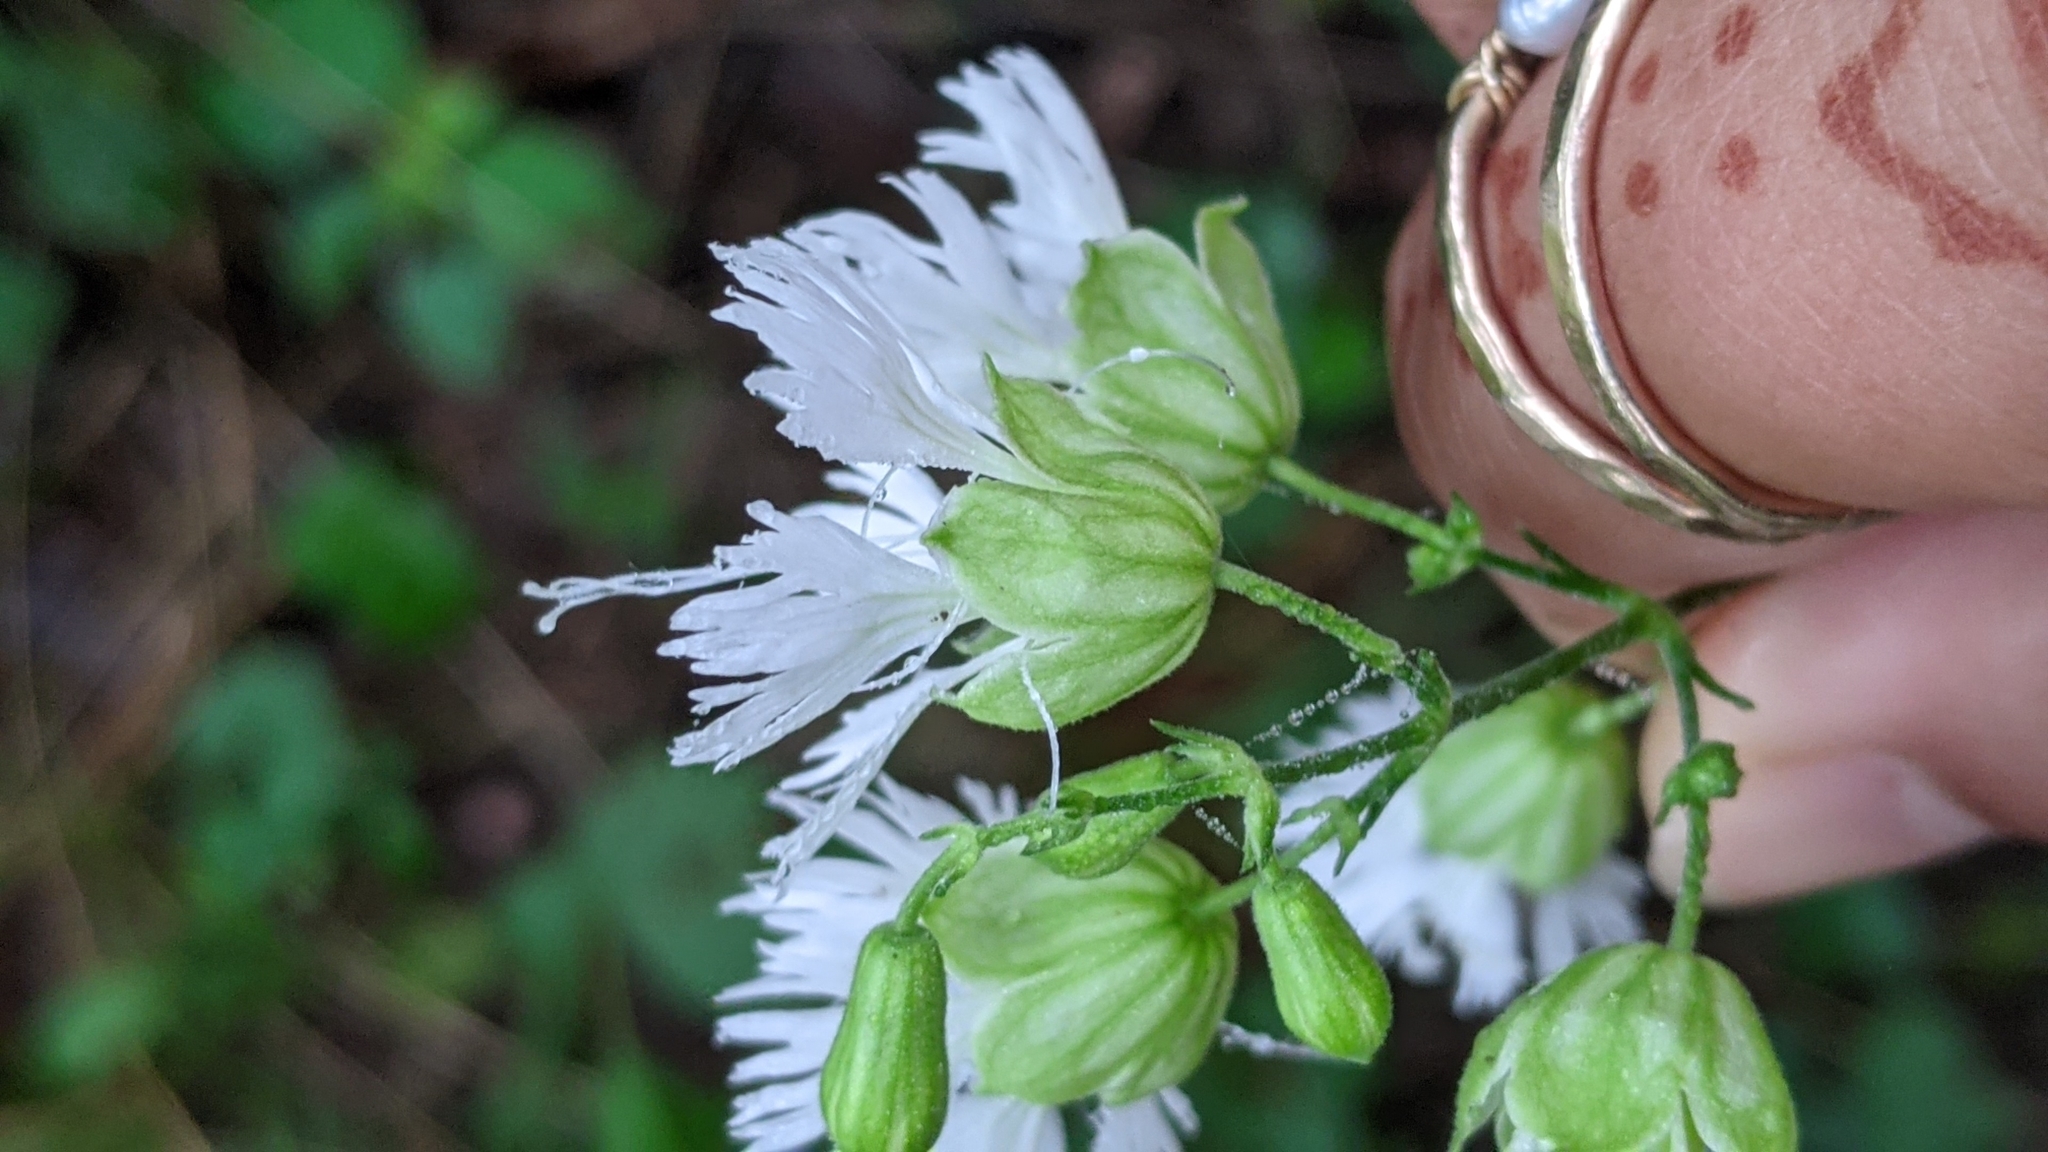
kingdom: Plantae
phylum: Tracheophyta
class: Magnoliopsida
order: Caryophyllales
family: Caryophyllaceae
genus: Silene
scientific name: Silene stellata
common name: Starry campion
